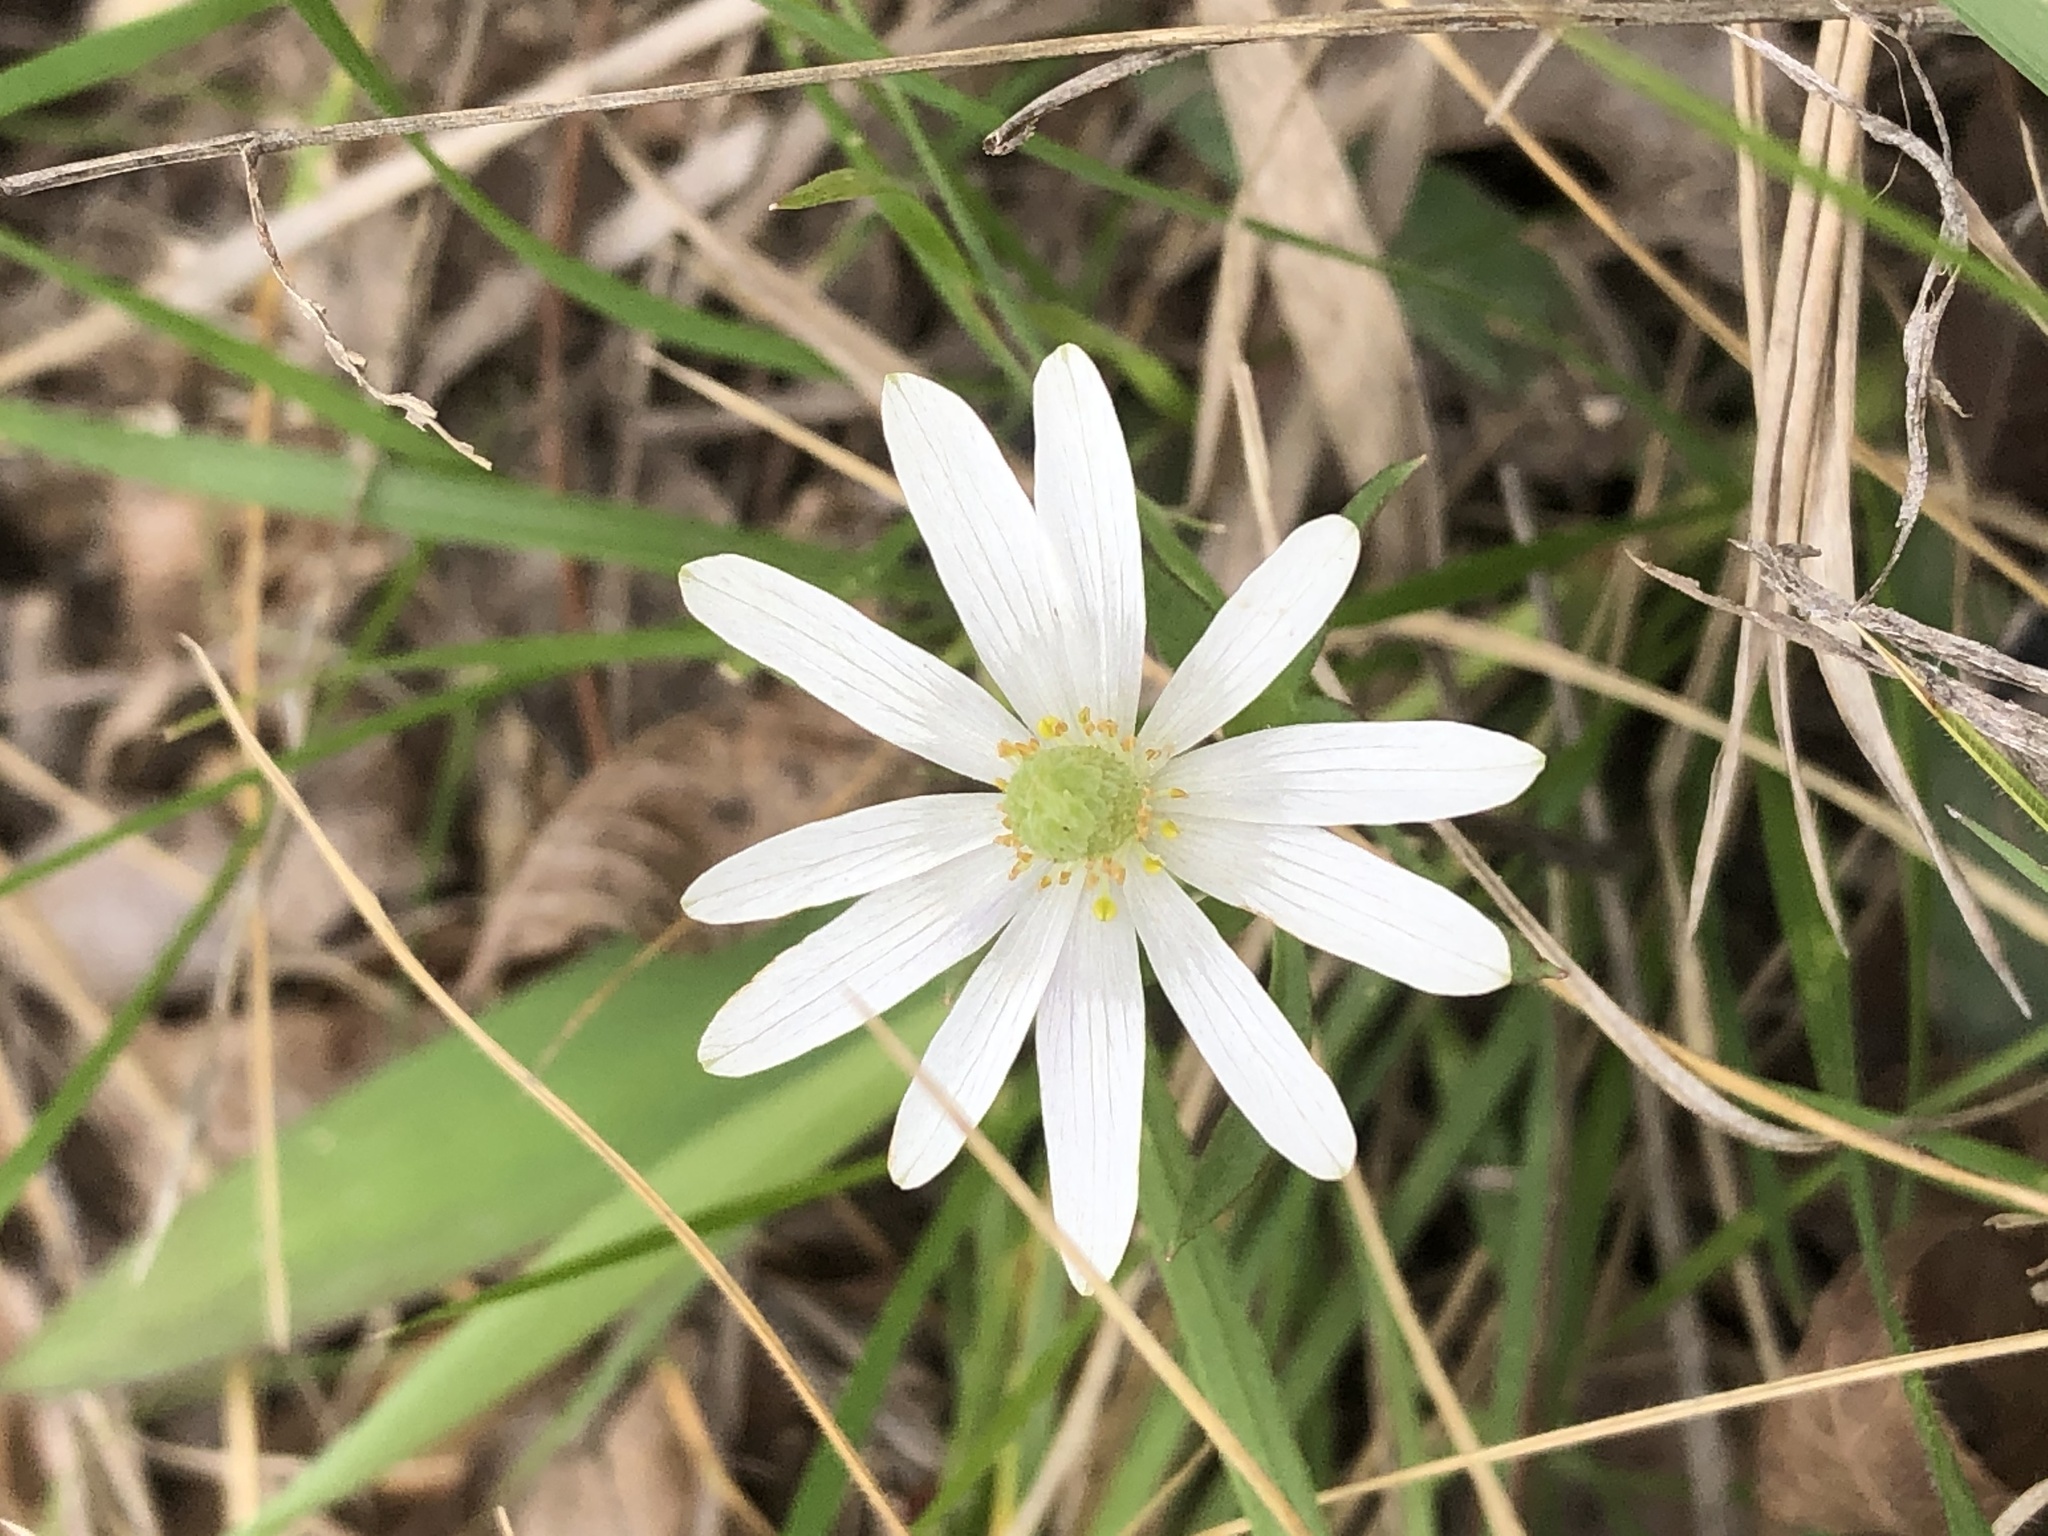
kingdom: Plantae
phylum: Tracheophyta
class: Magnoliopsida
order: Ranunculales
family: Ranunculaceae
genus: Anemone
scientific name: Anemone berlandieri
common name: Ten-petal anemone
